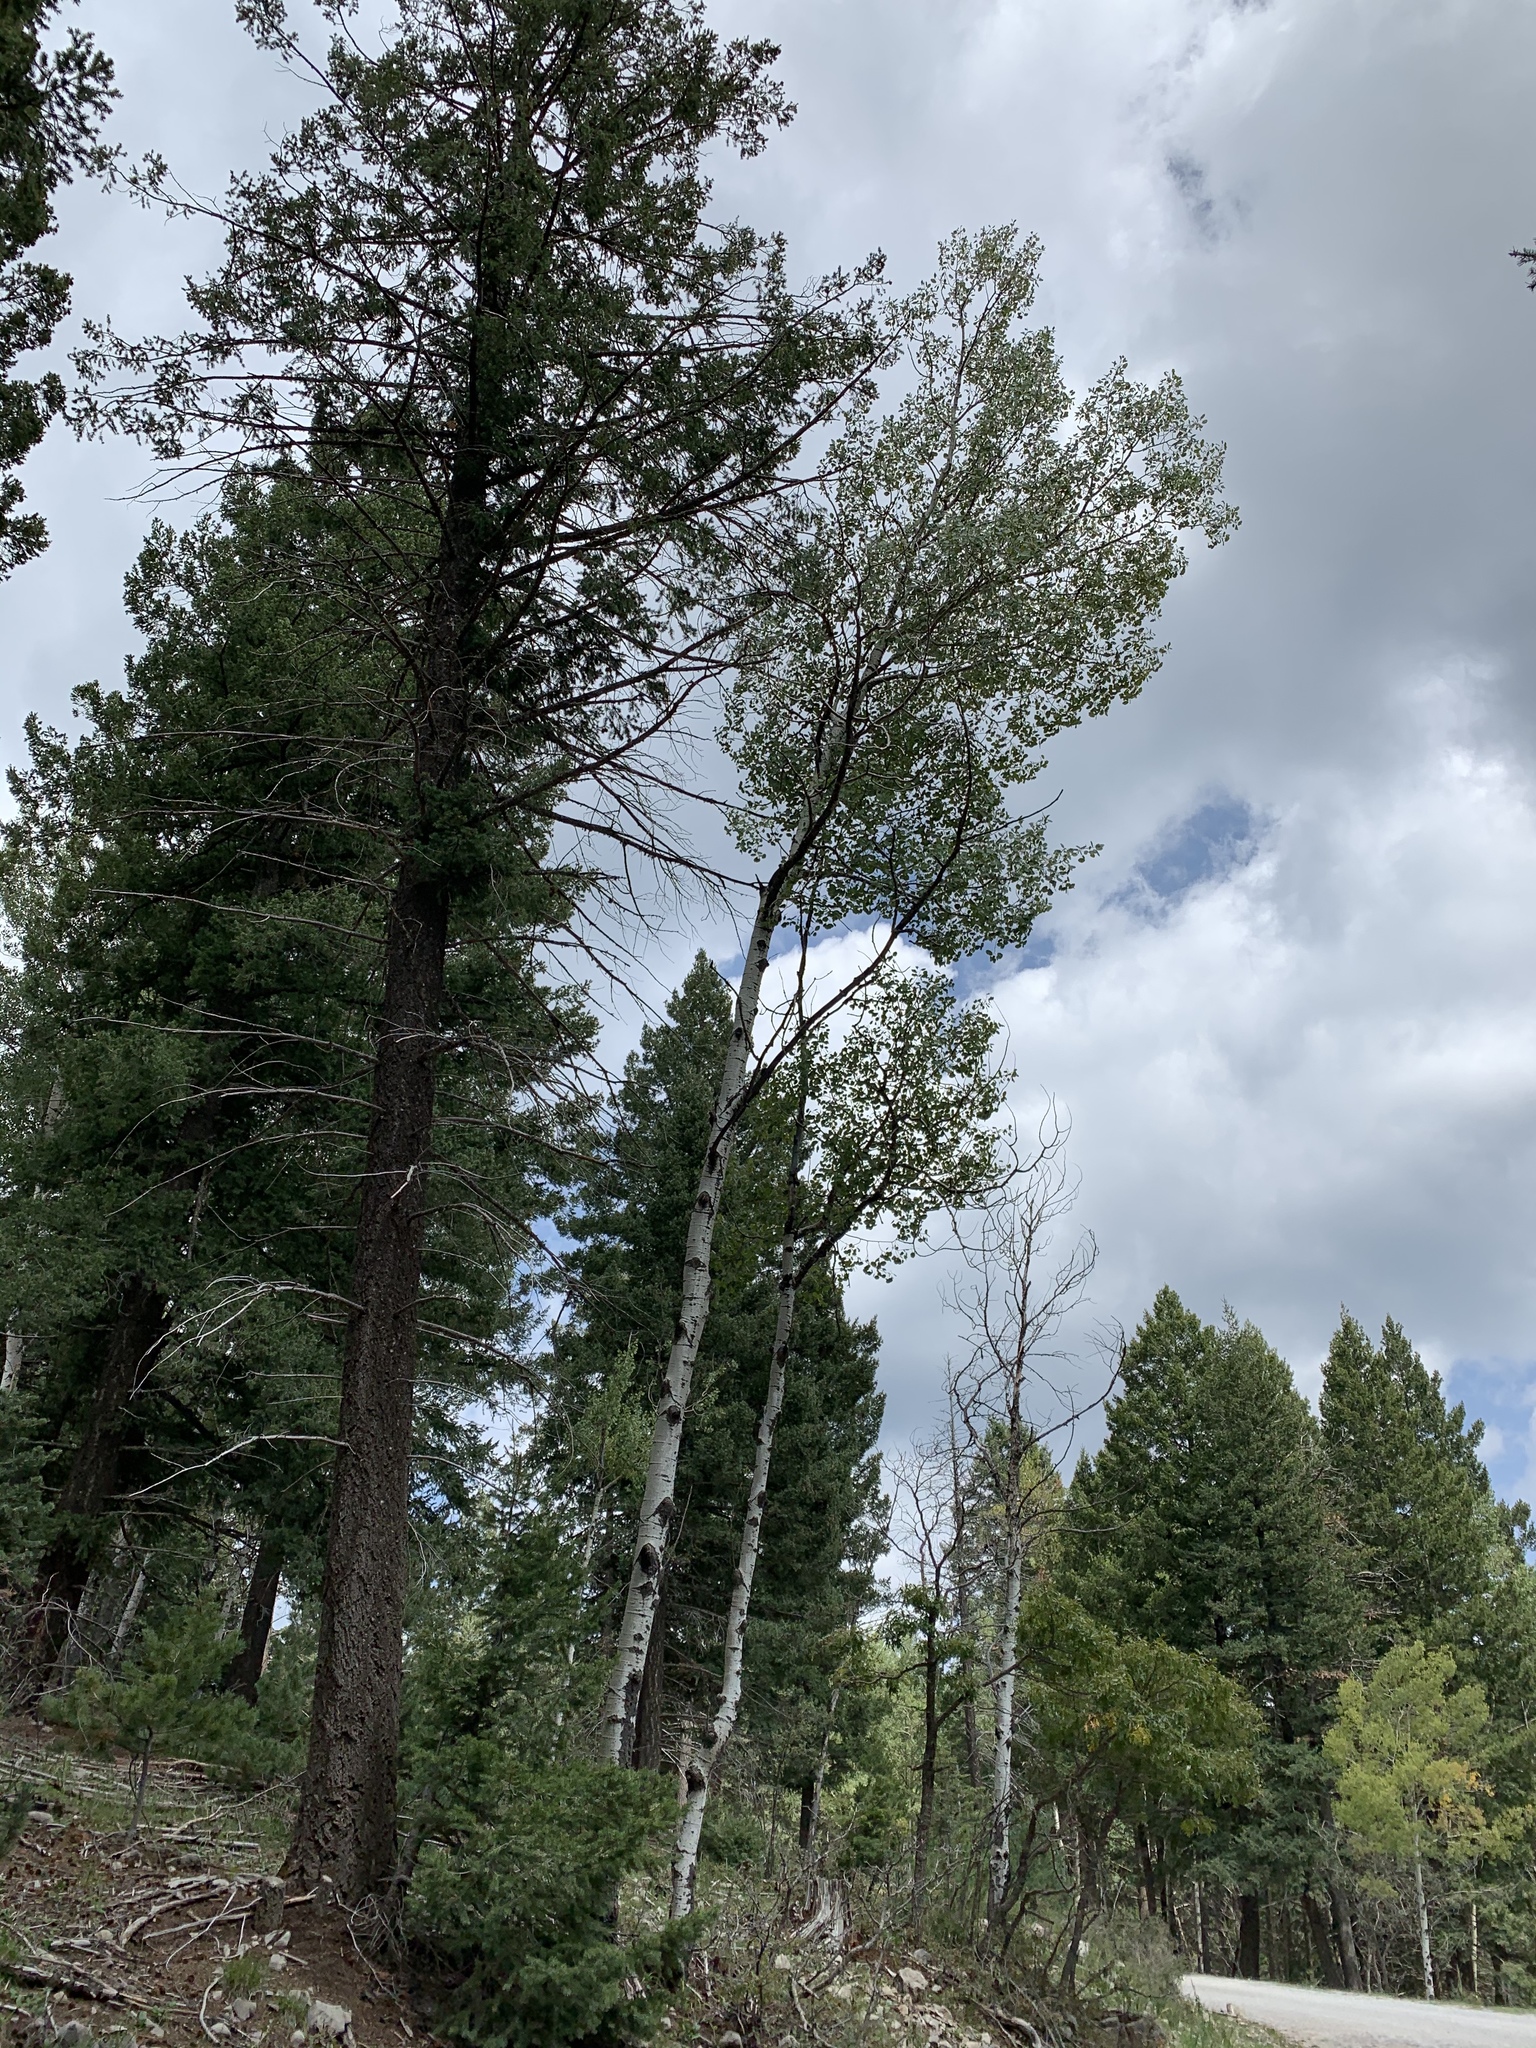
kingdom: Plantae
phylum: Tracheophyta
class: Magnoliopsida
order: Malpighiales
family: Salicaceae
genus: Populus
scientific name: Populus tremuloides
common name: Quaking aspen
